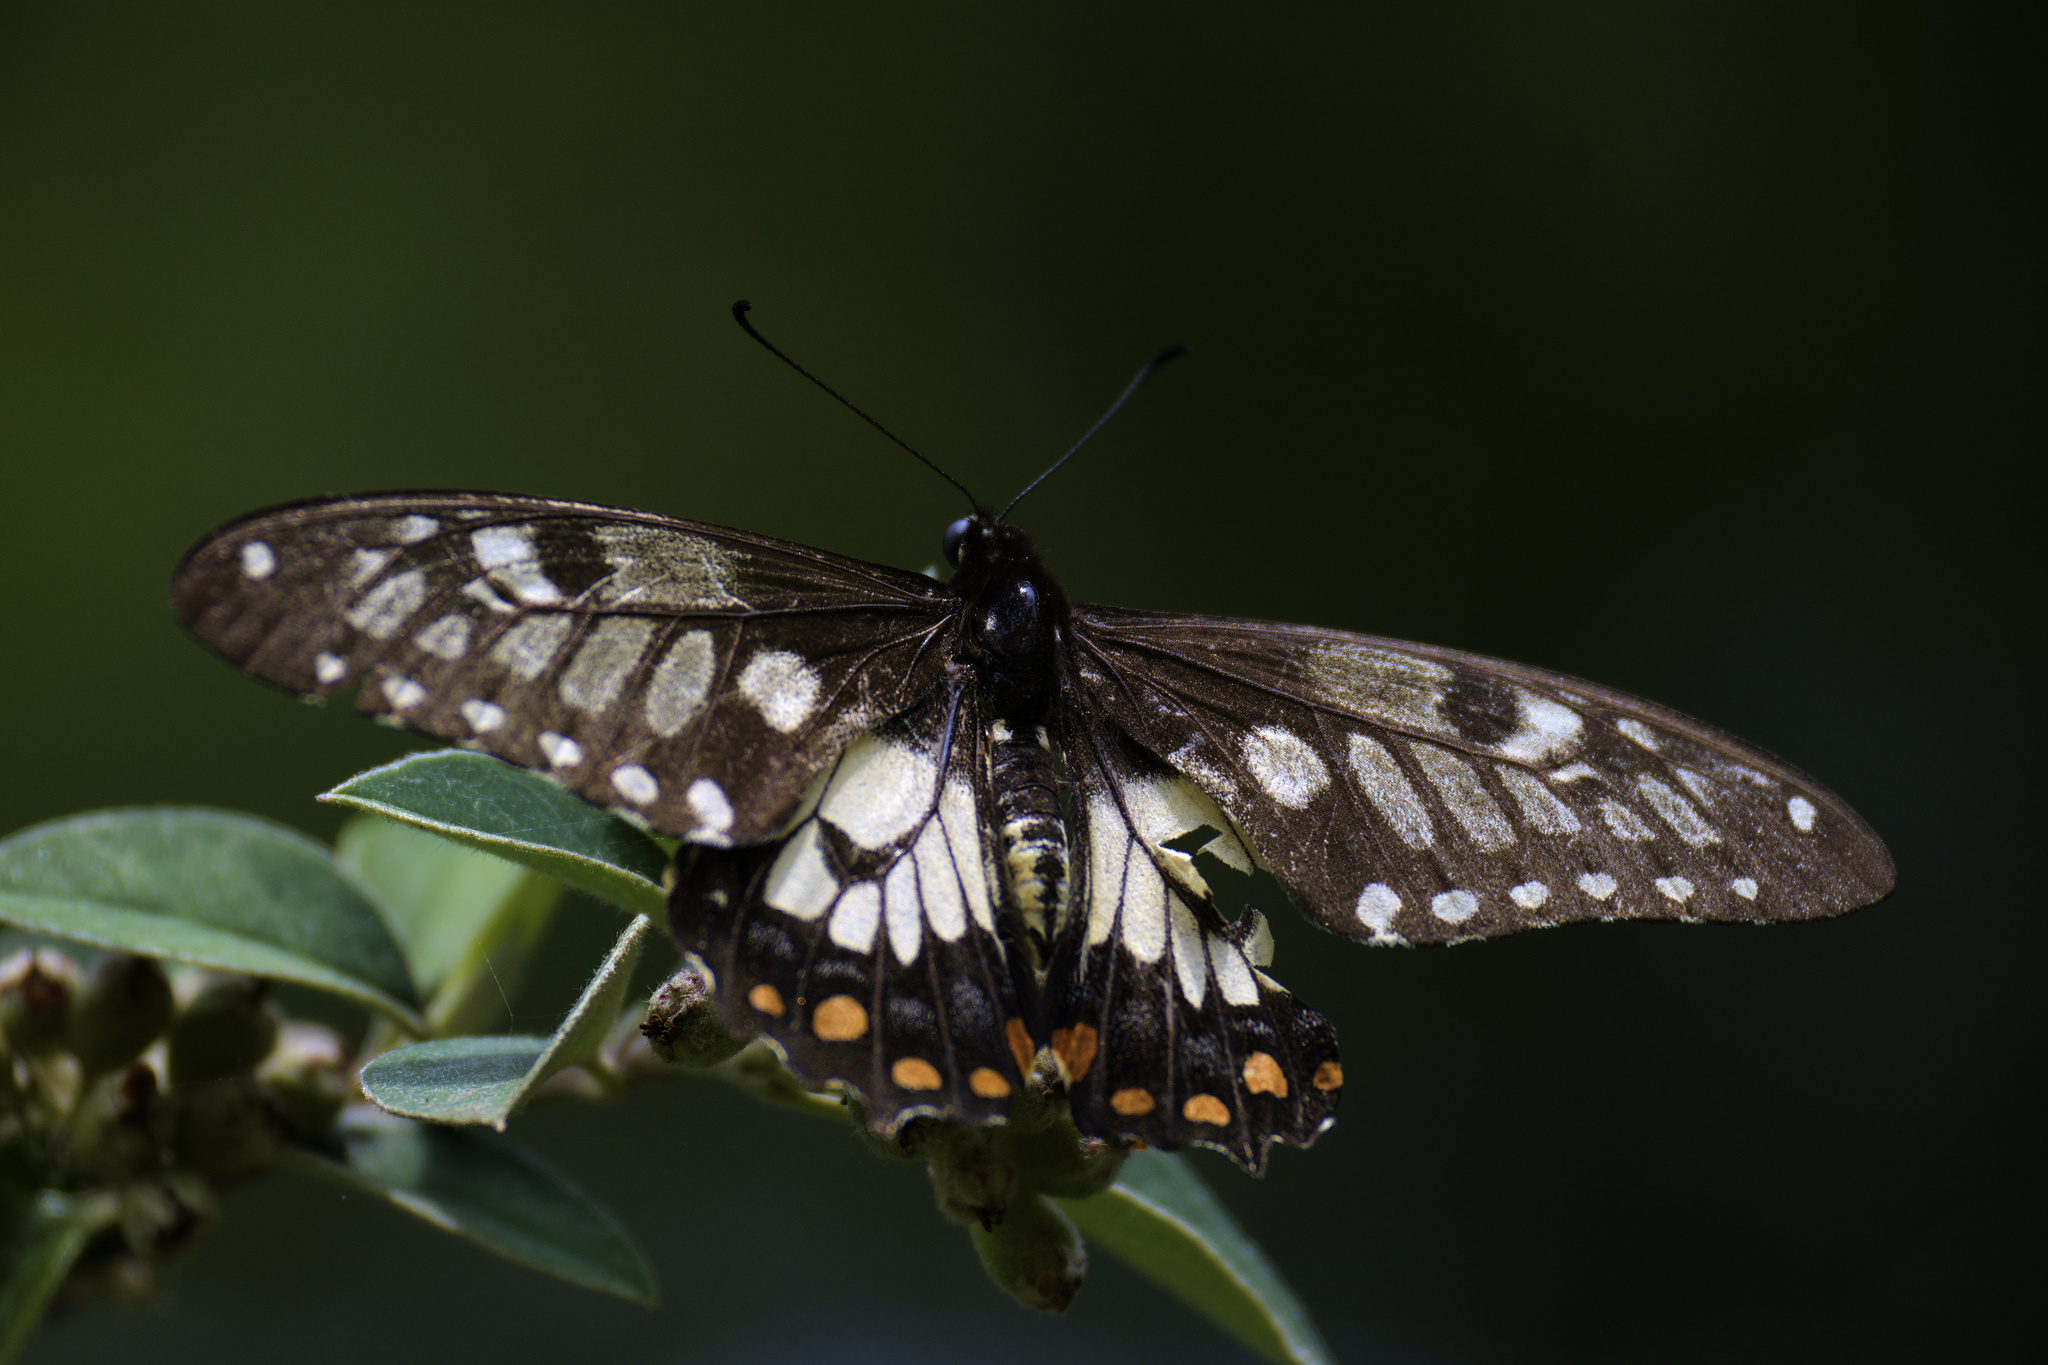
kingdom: Animalia
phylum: Arthropoda
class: Insecta
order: Lepidoptera
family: Papilionidae
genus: Papilio
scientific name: Papilio anactus
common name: Dingy swallowtail
